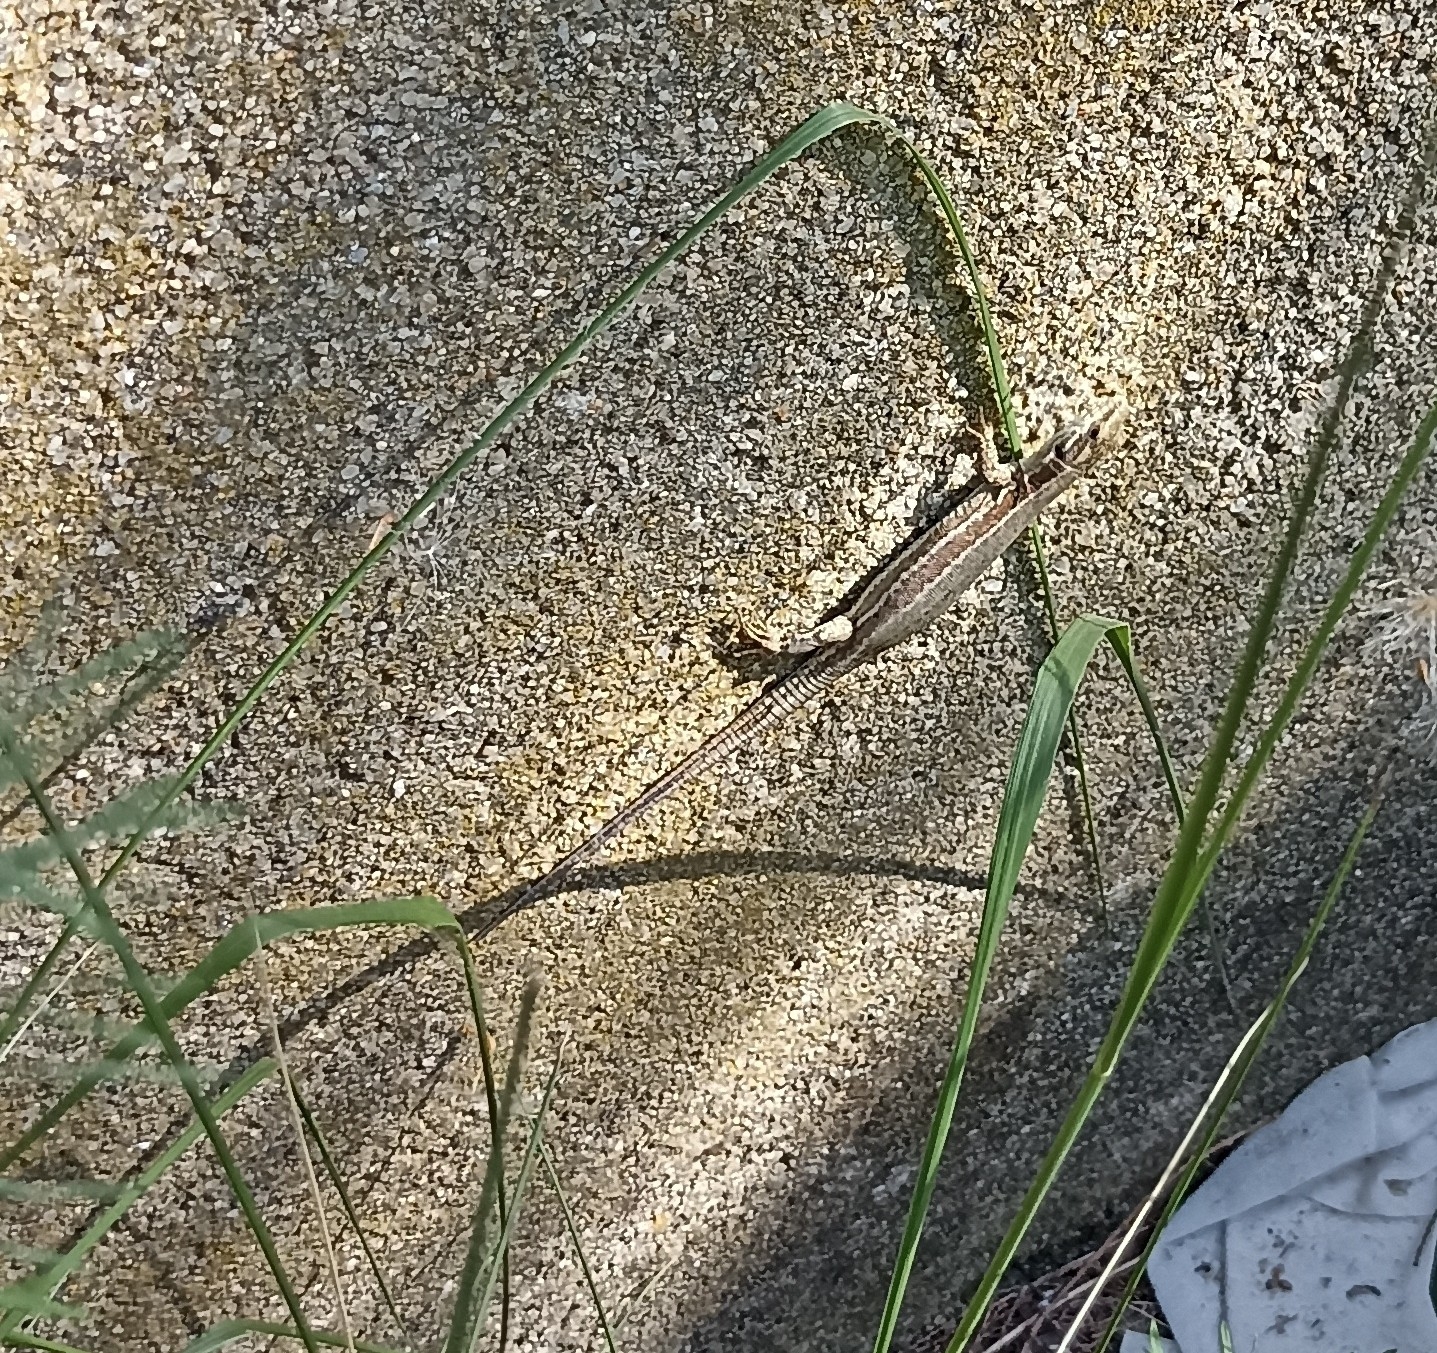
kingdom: Animalia
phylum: Chordata
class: Squamata
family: Lacertidae
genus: Podarcis
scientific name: Podarcis muralis
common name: Common wall lizard
